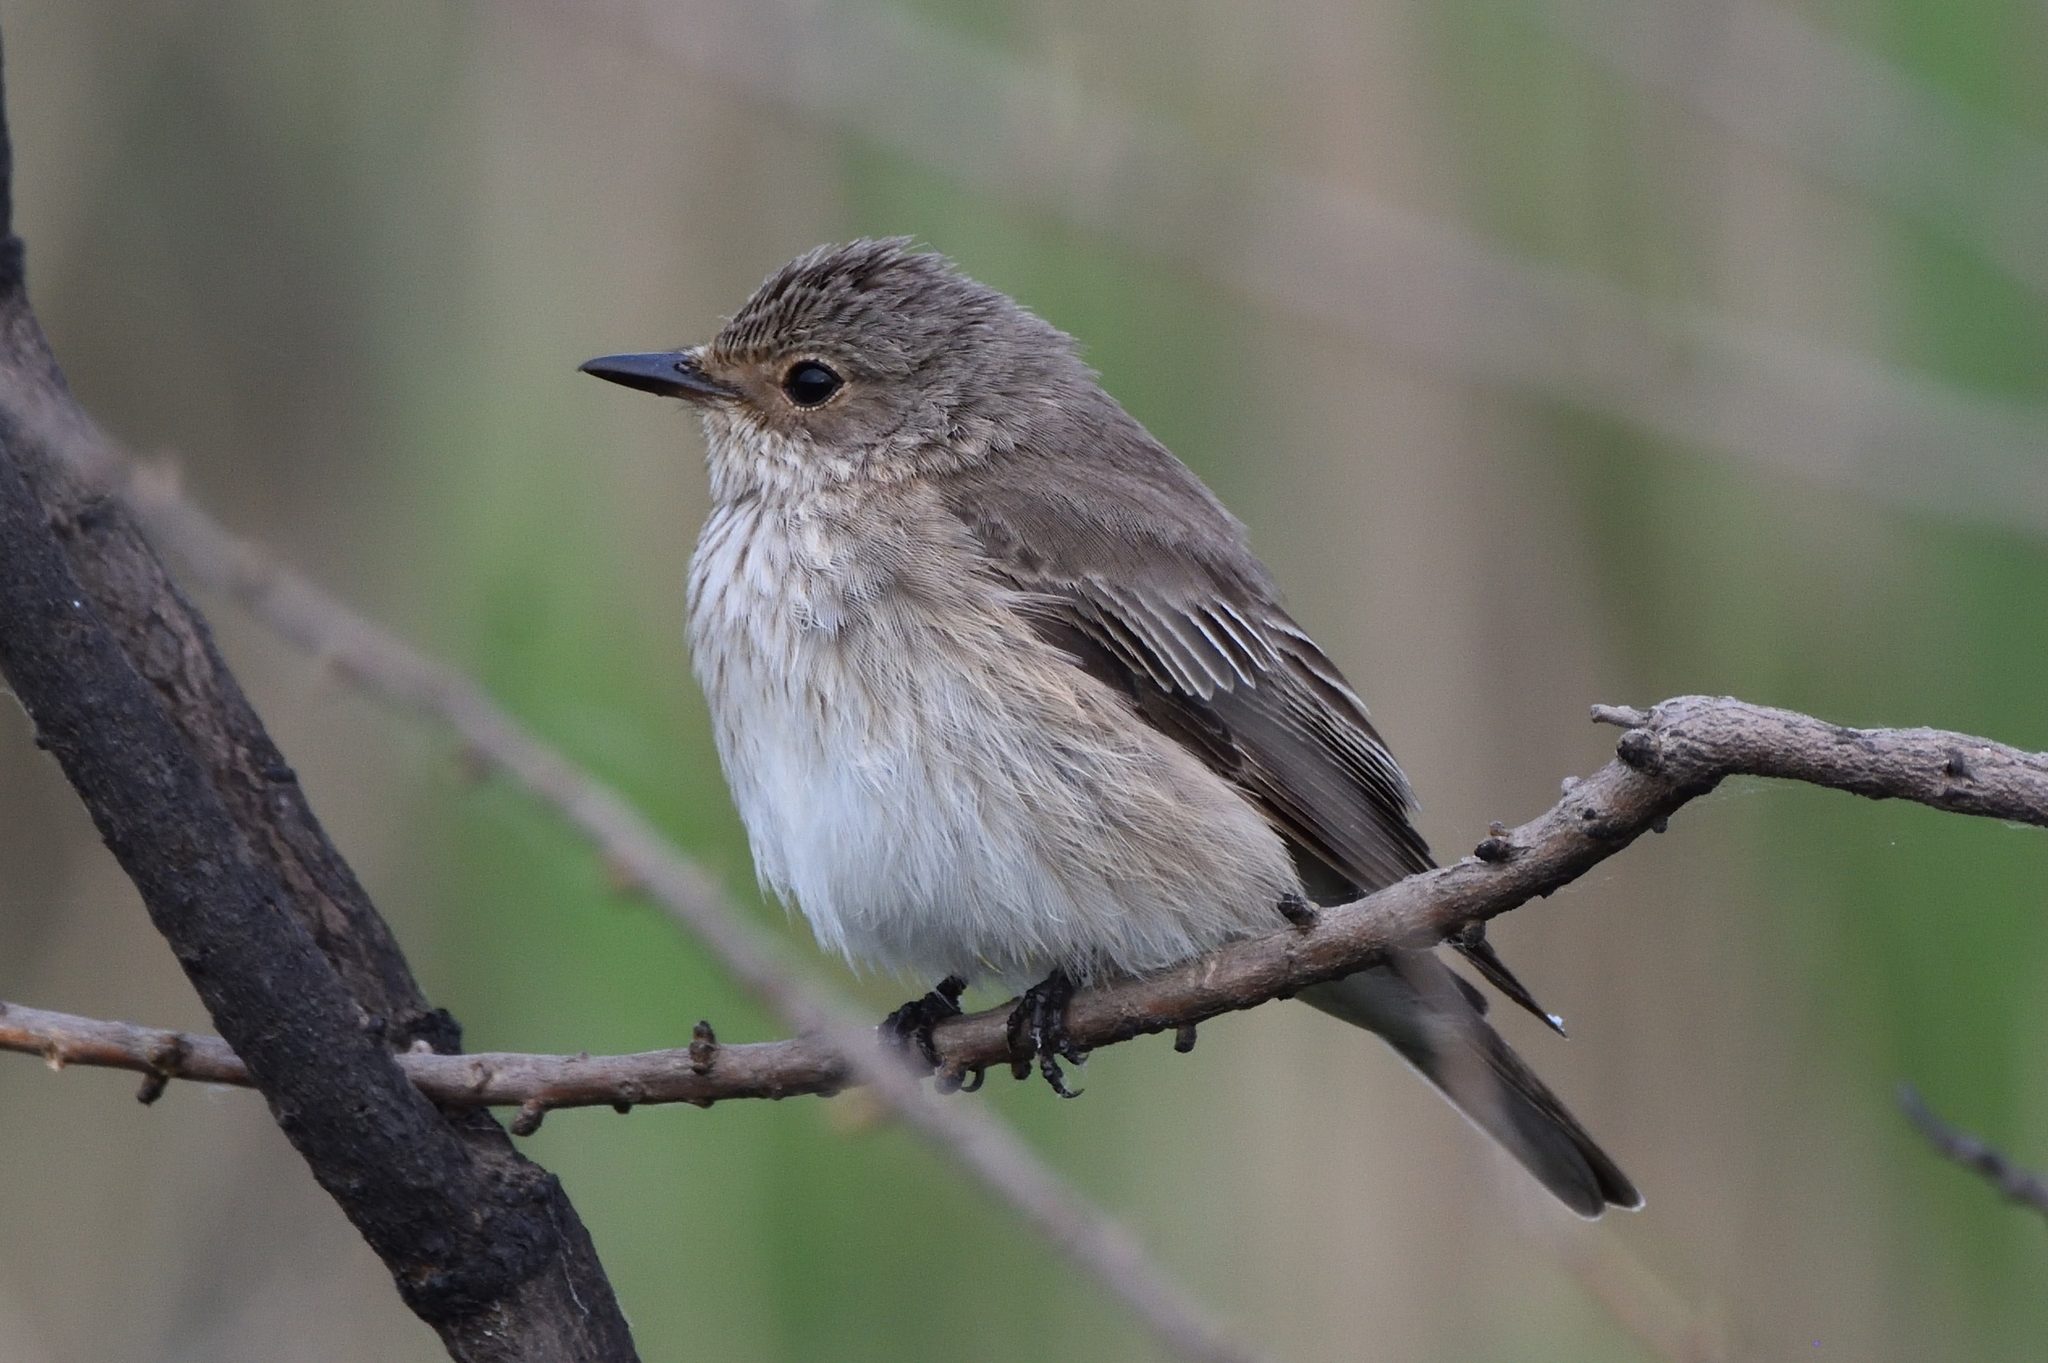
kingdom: Animalia
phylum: Chordata
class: Aves
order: Passeriformes
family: Muscicapidae
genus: Muscicapa
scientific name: Muscicapa striata
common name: Spotted flycatcher
